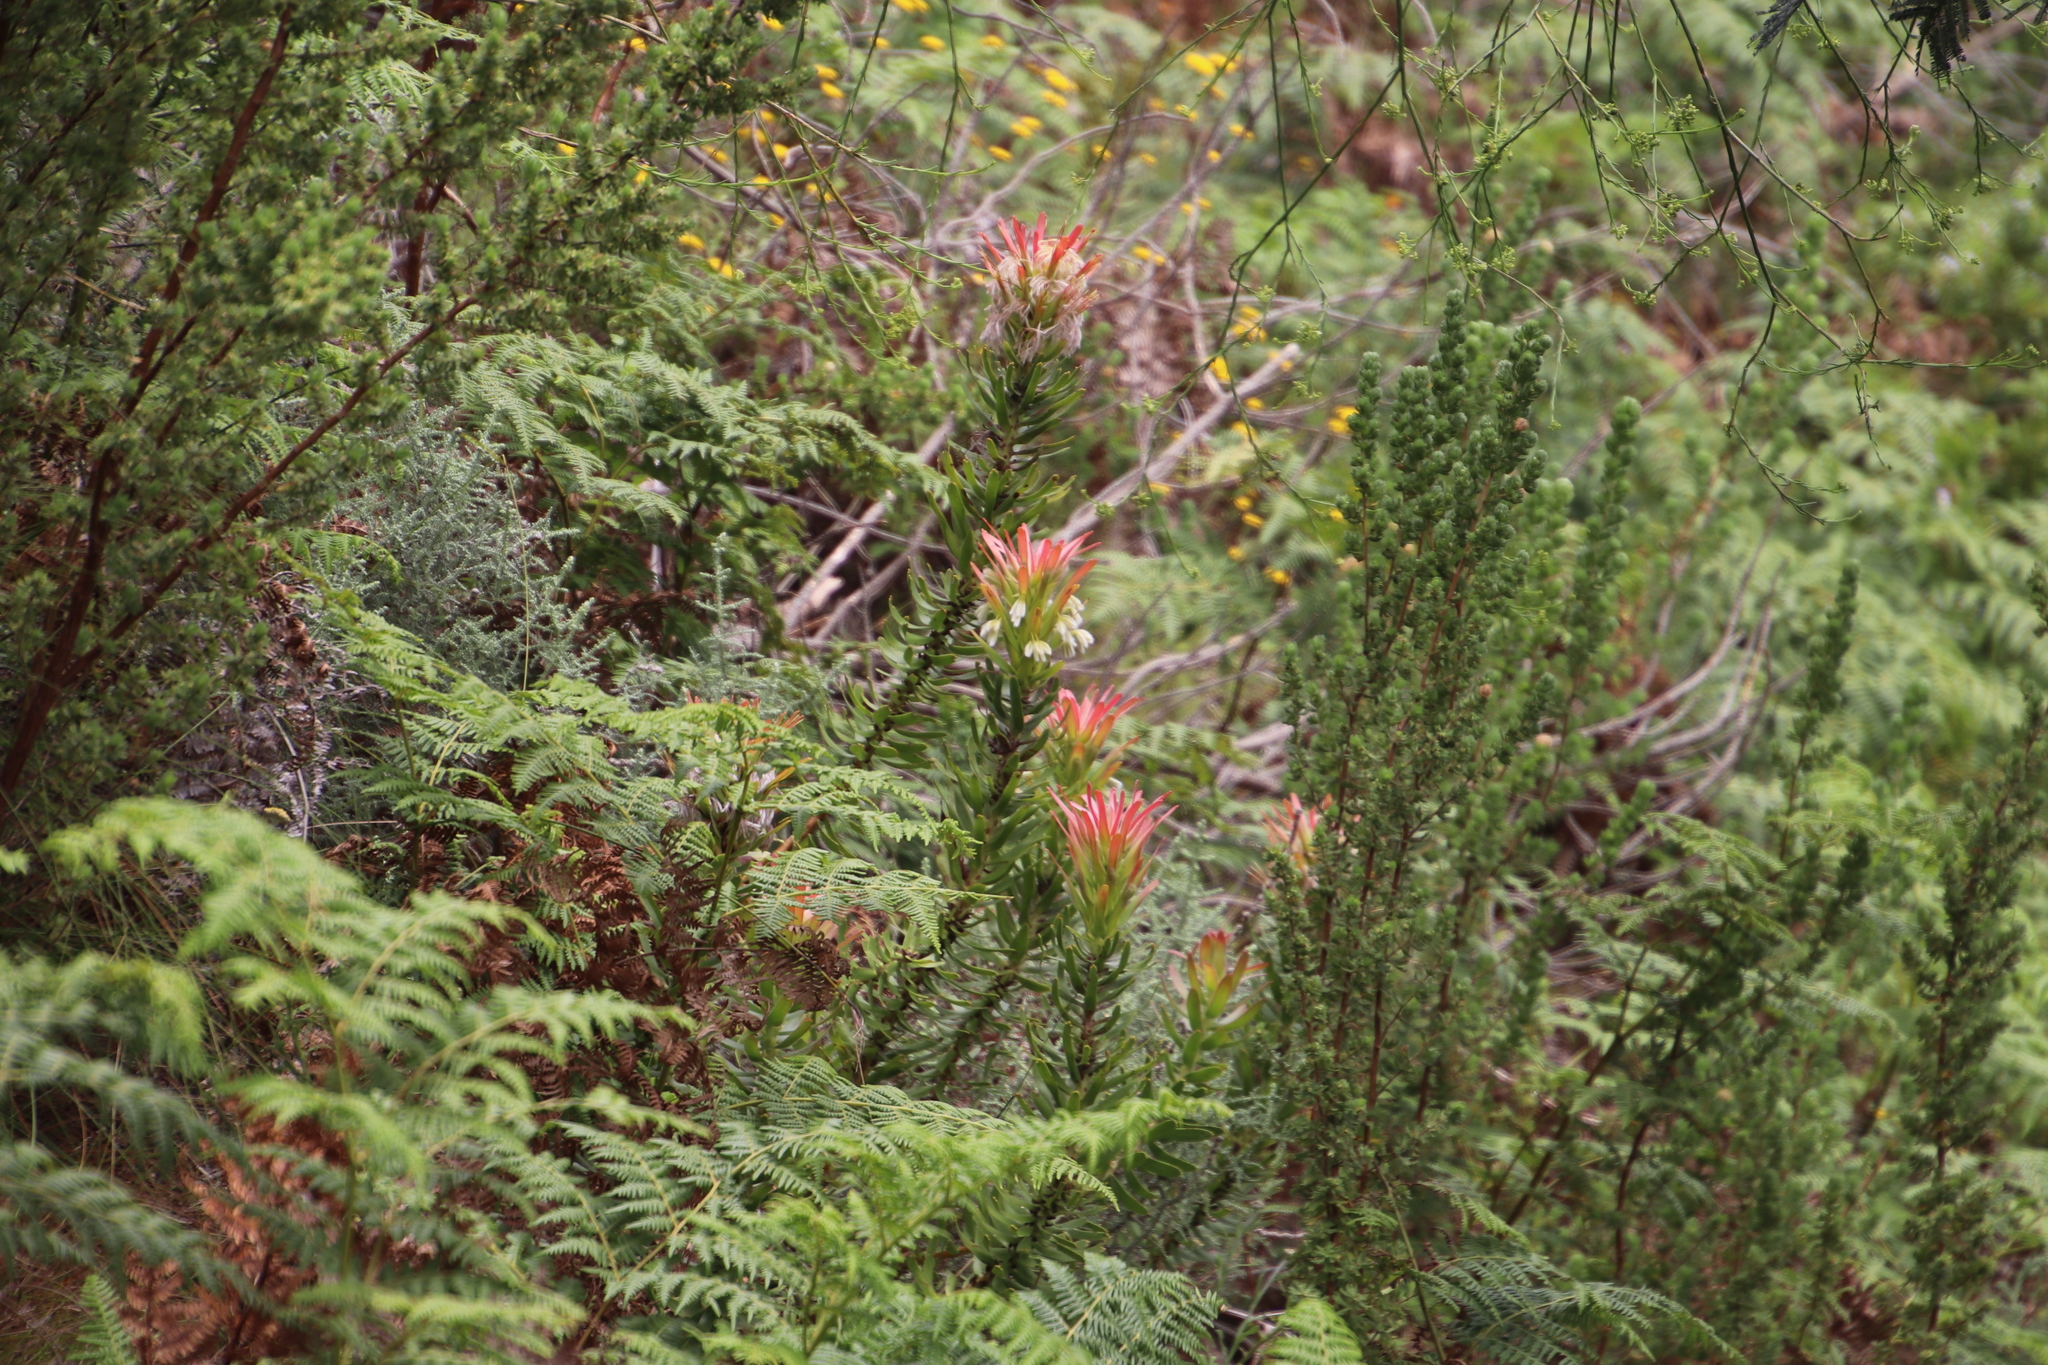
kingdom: Plantae
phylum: Tracheophyta
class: Magnoliopsida
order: Proteales
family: Proteaceae
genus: Mimetes
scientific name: Mimetes cucullatus
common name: Common pagoda
